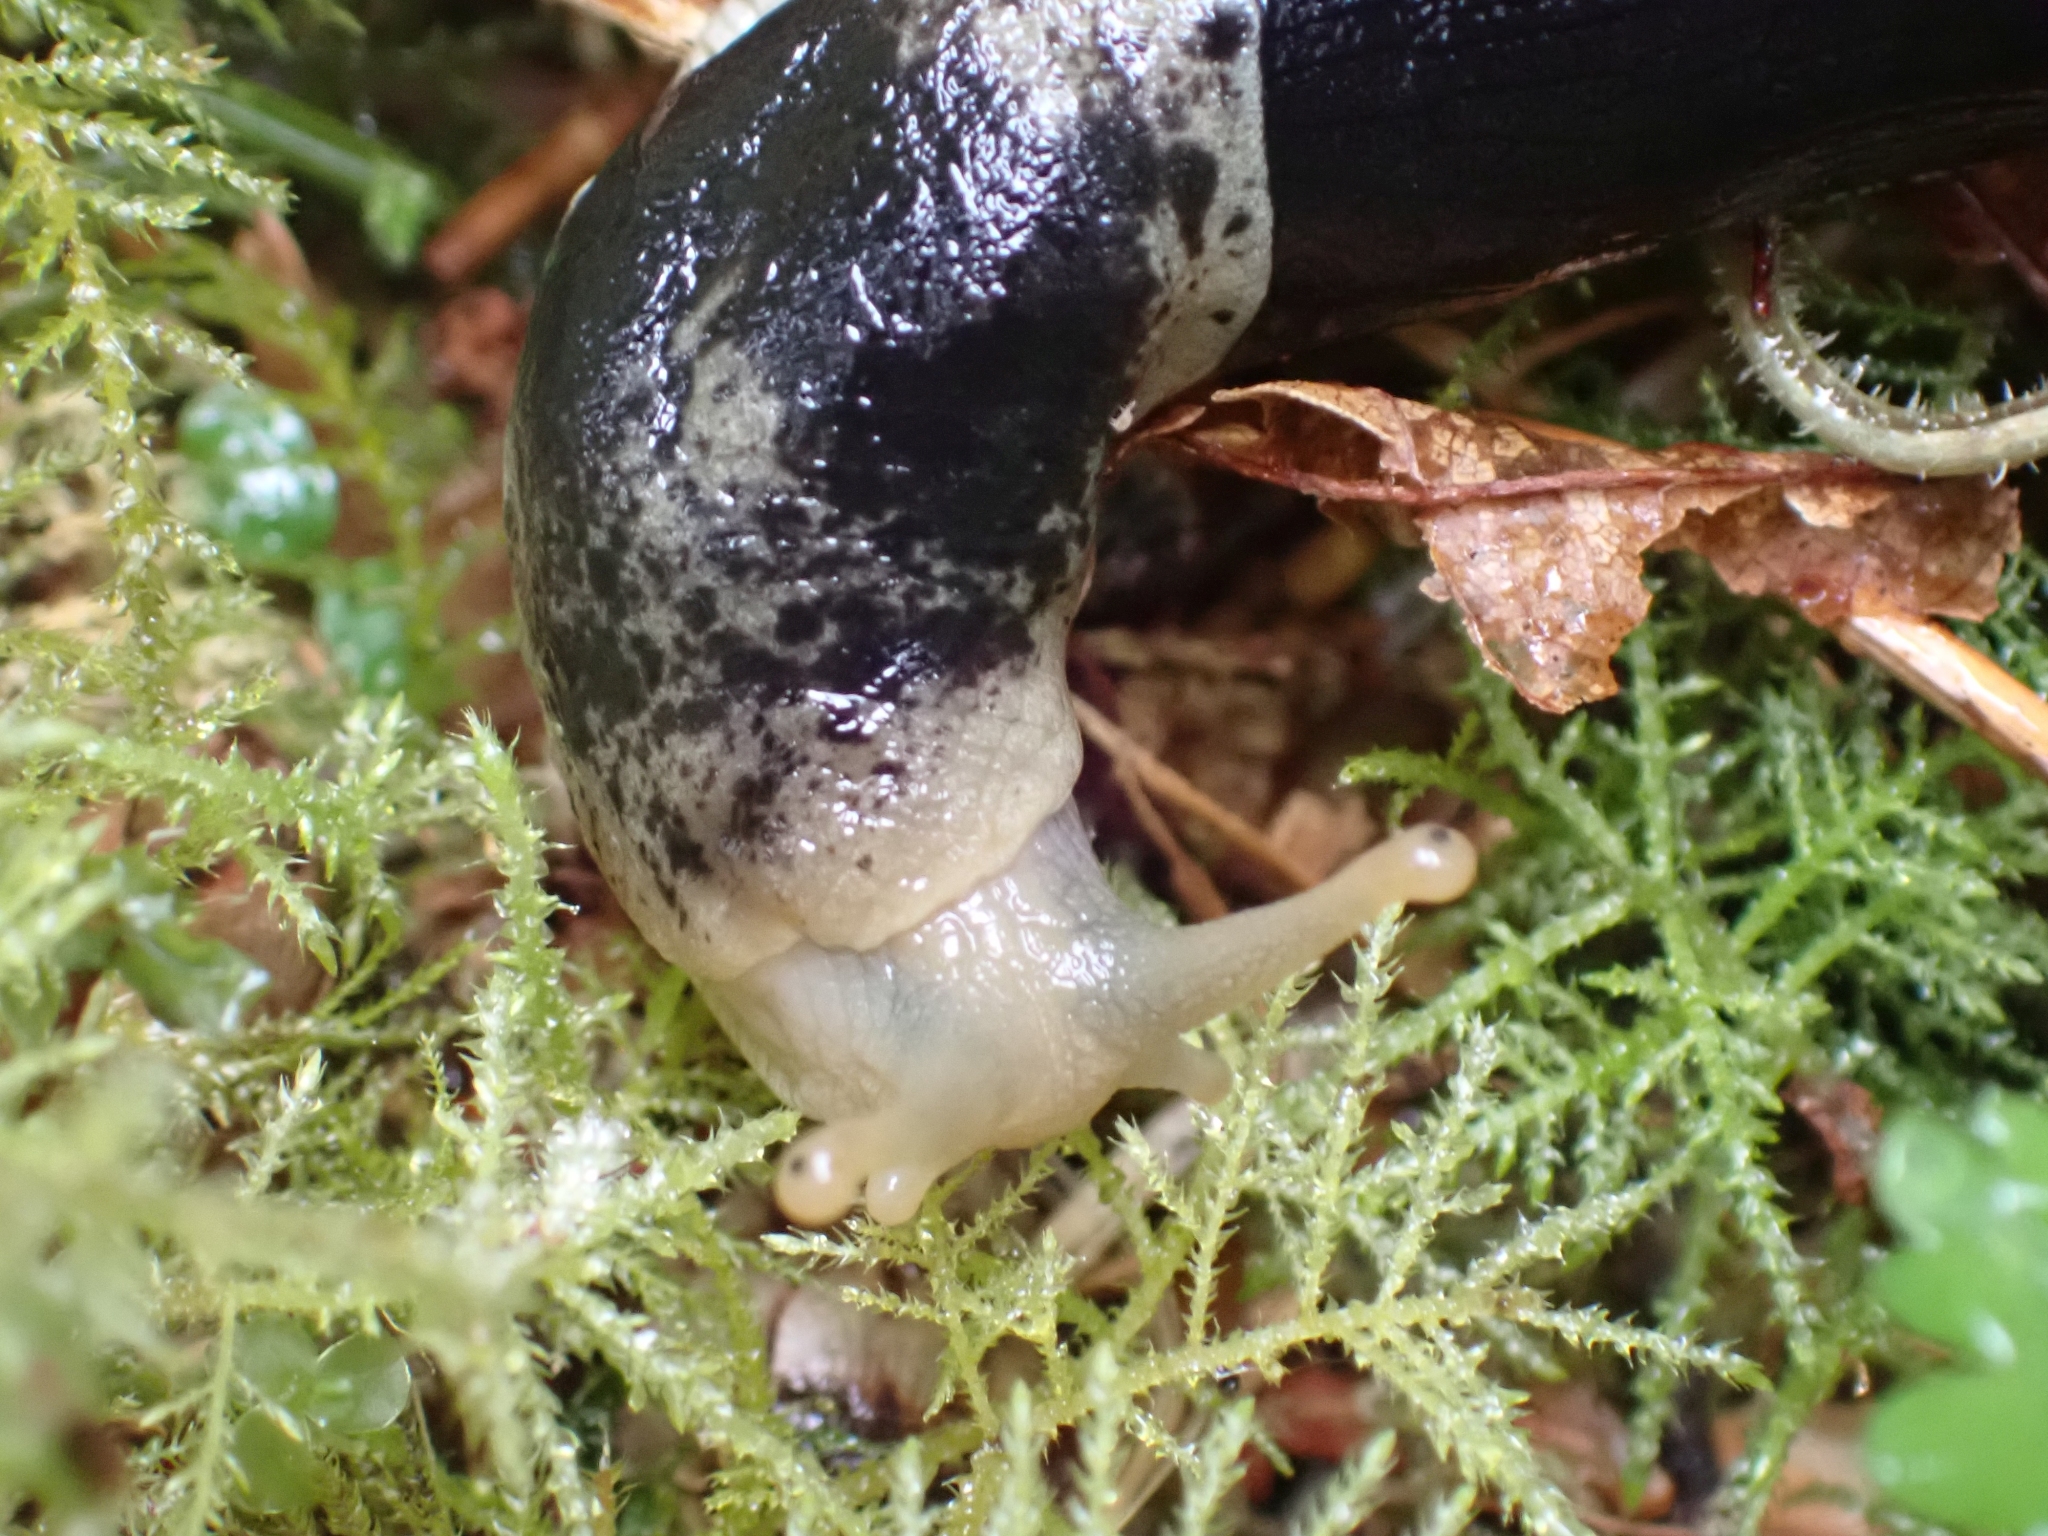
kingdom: Animalia
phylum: Mollusca
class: Gastropoda
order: Stylommatophora
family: Ariolimacidae
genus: Ariolimax
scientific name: Ariolimax columbianus
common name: Pacific banana slug
